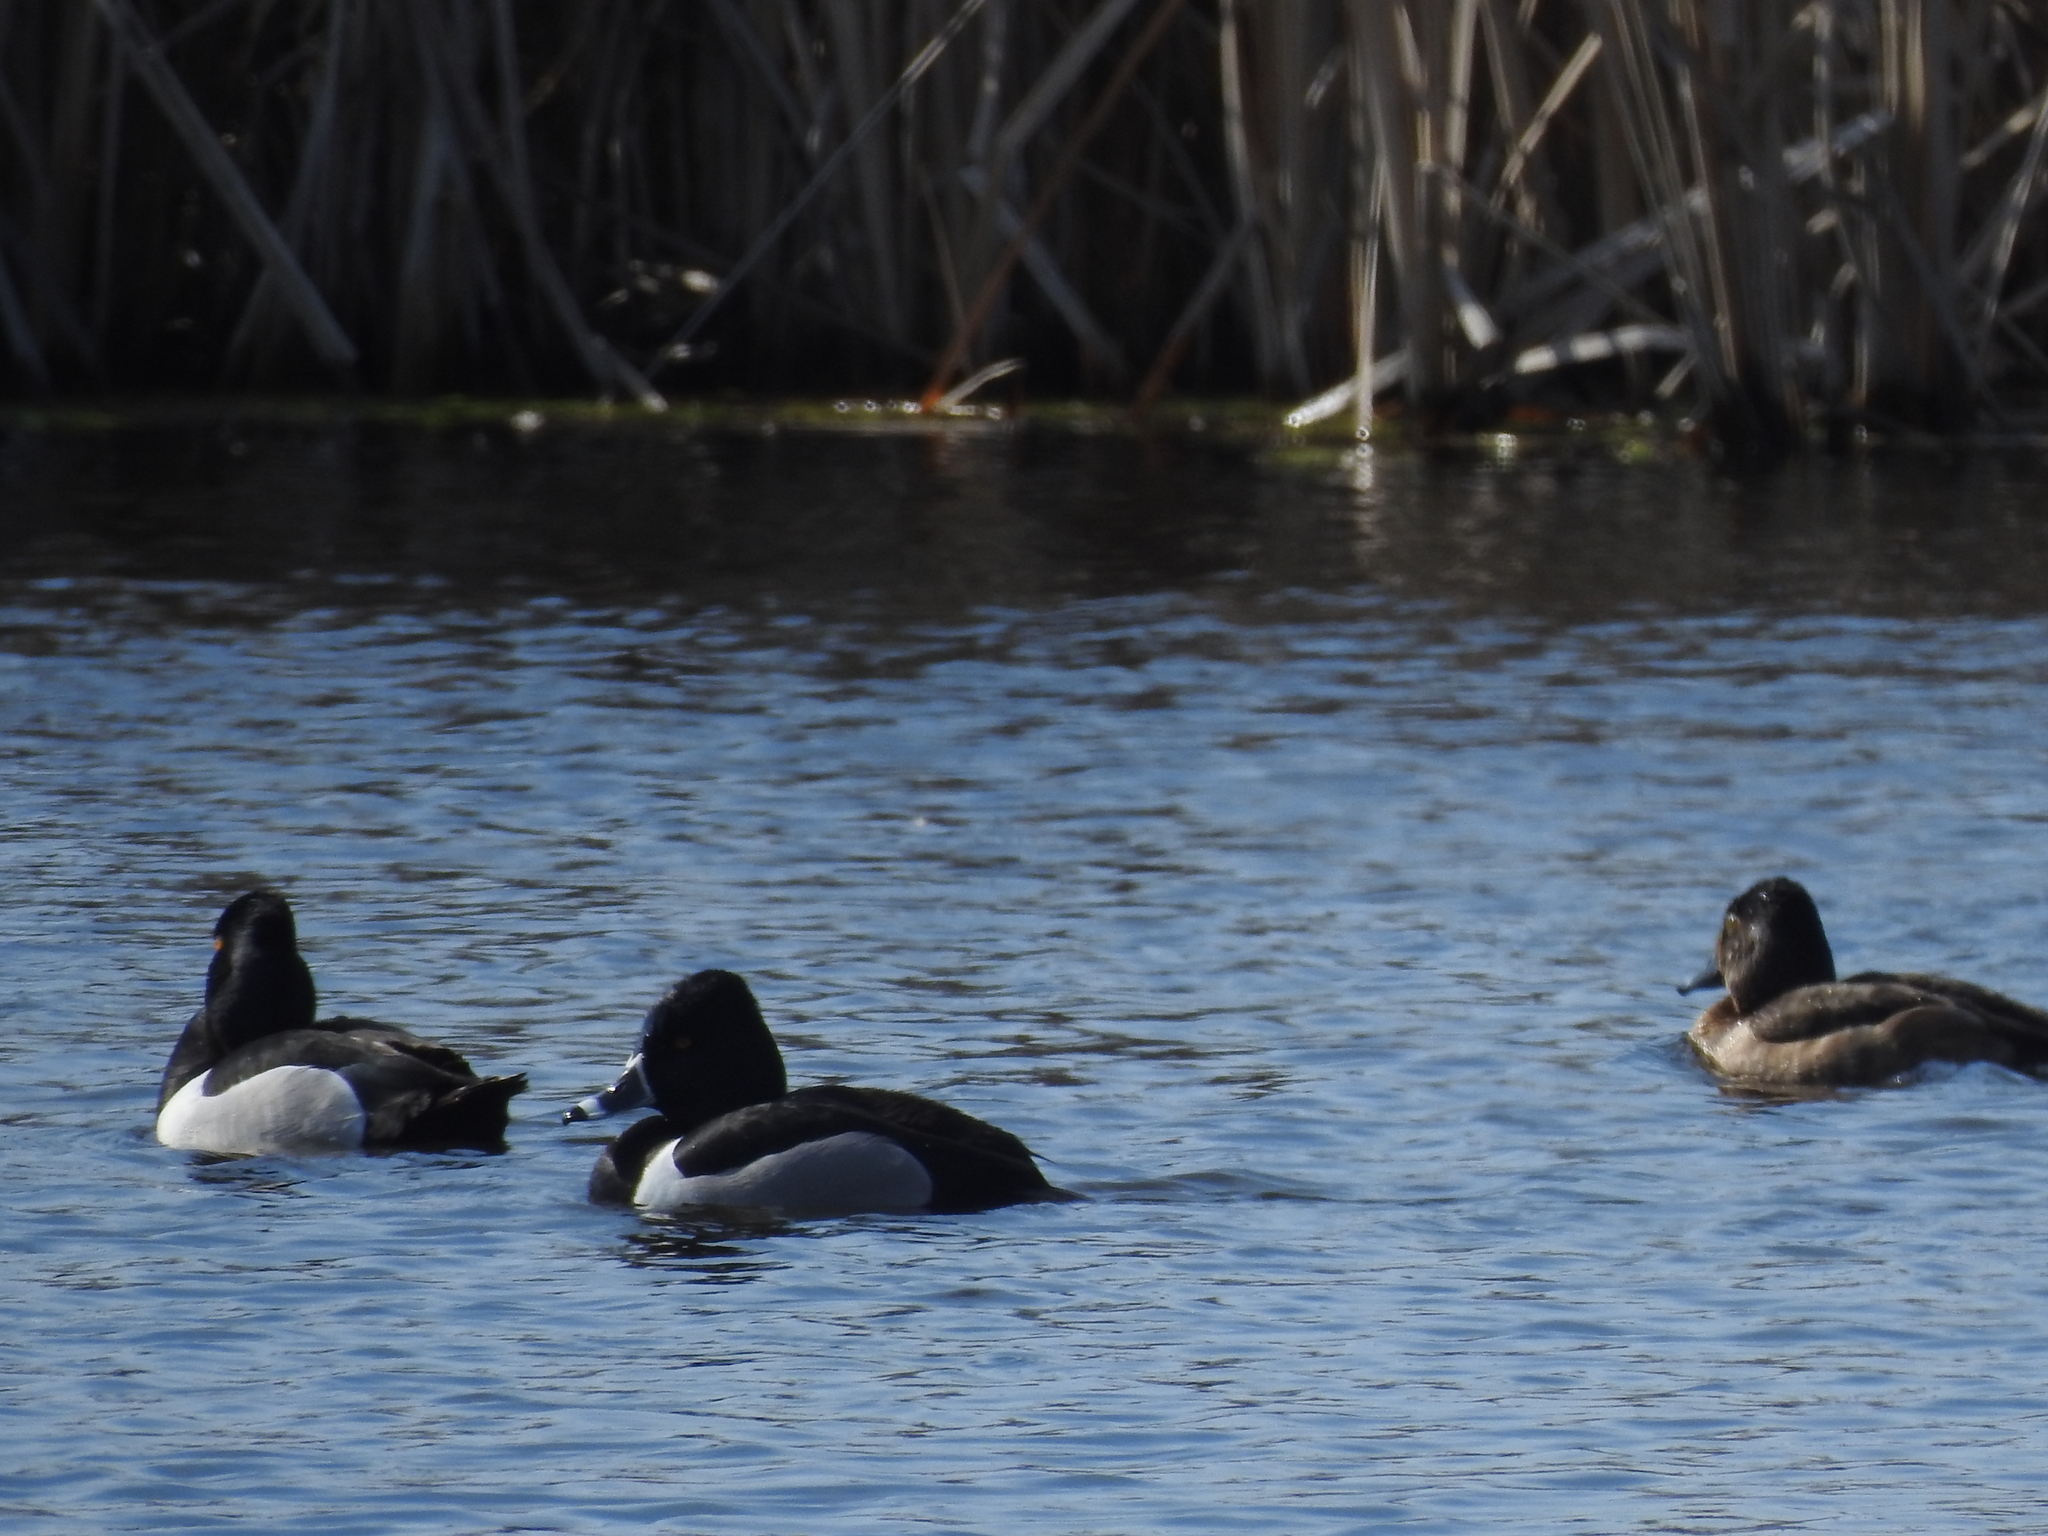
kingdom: Animalia
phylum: Chordata
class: Aves
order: Anseriformes
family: Anatidae
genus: Aythya
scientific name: Aythya collaris
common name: Ring-necked duck
